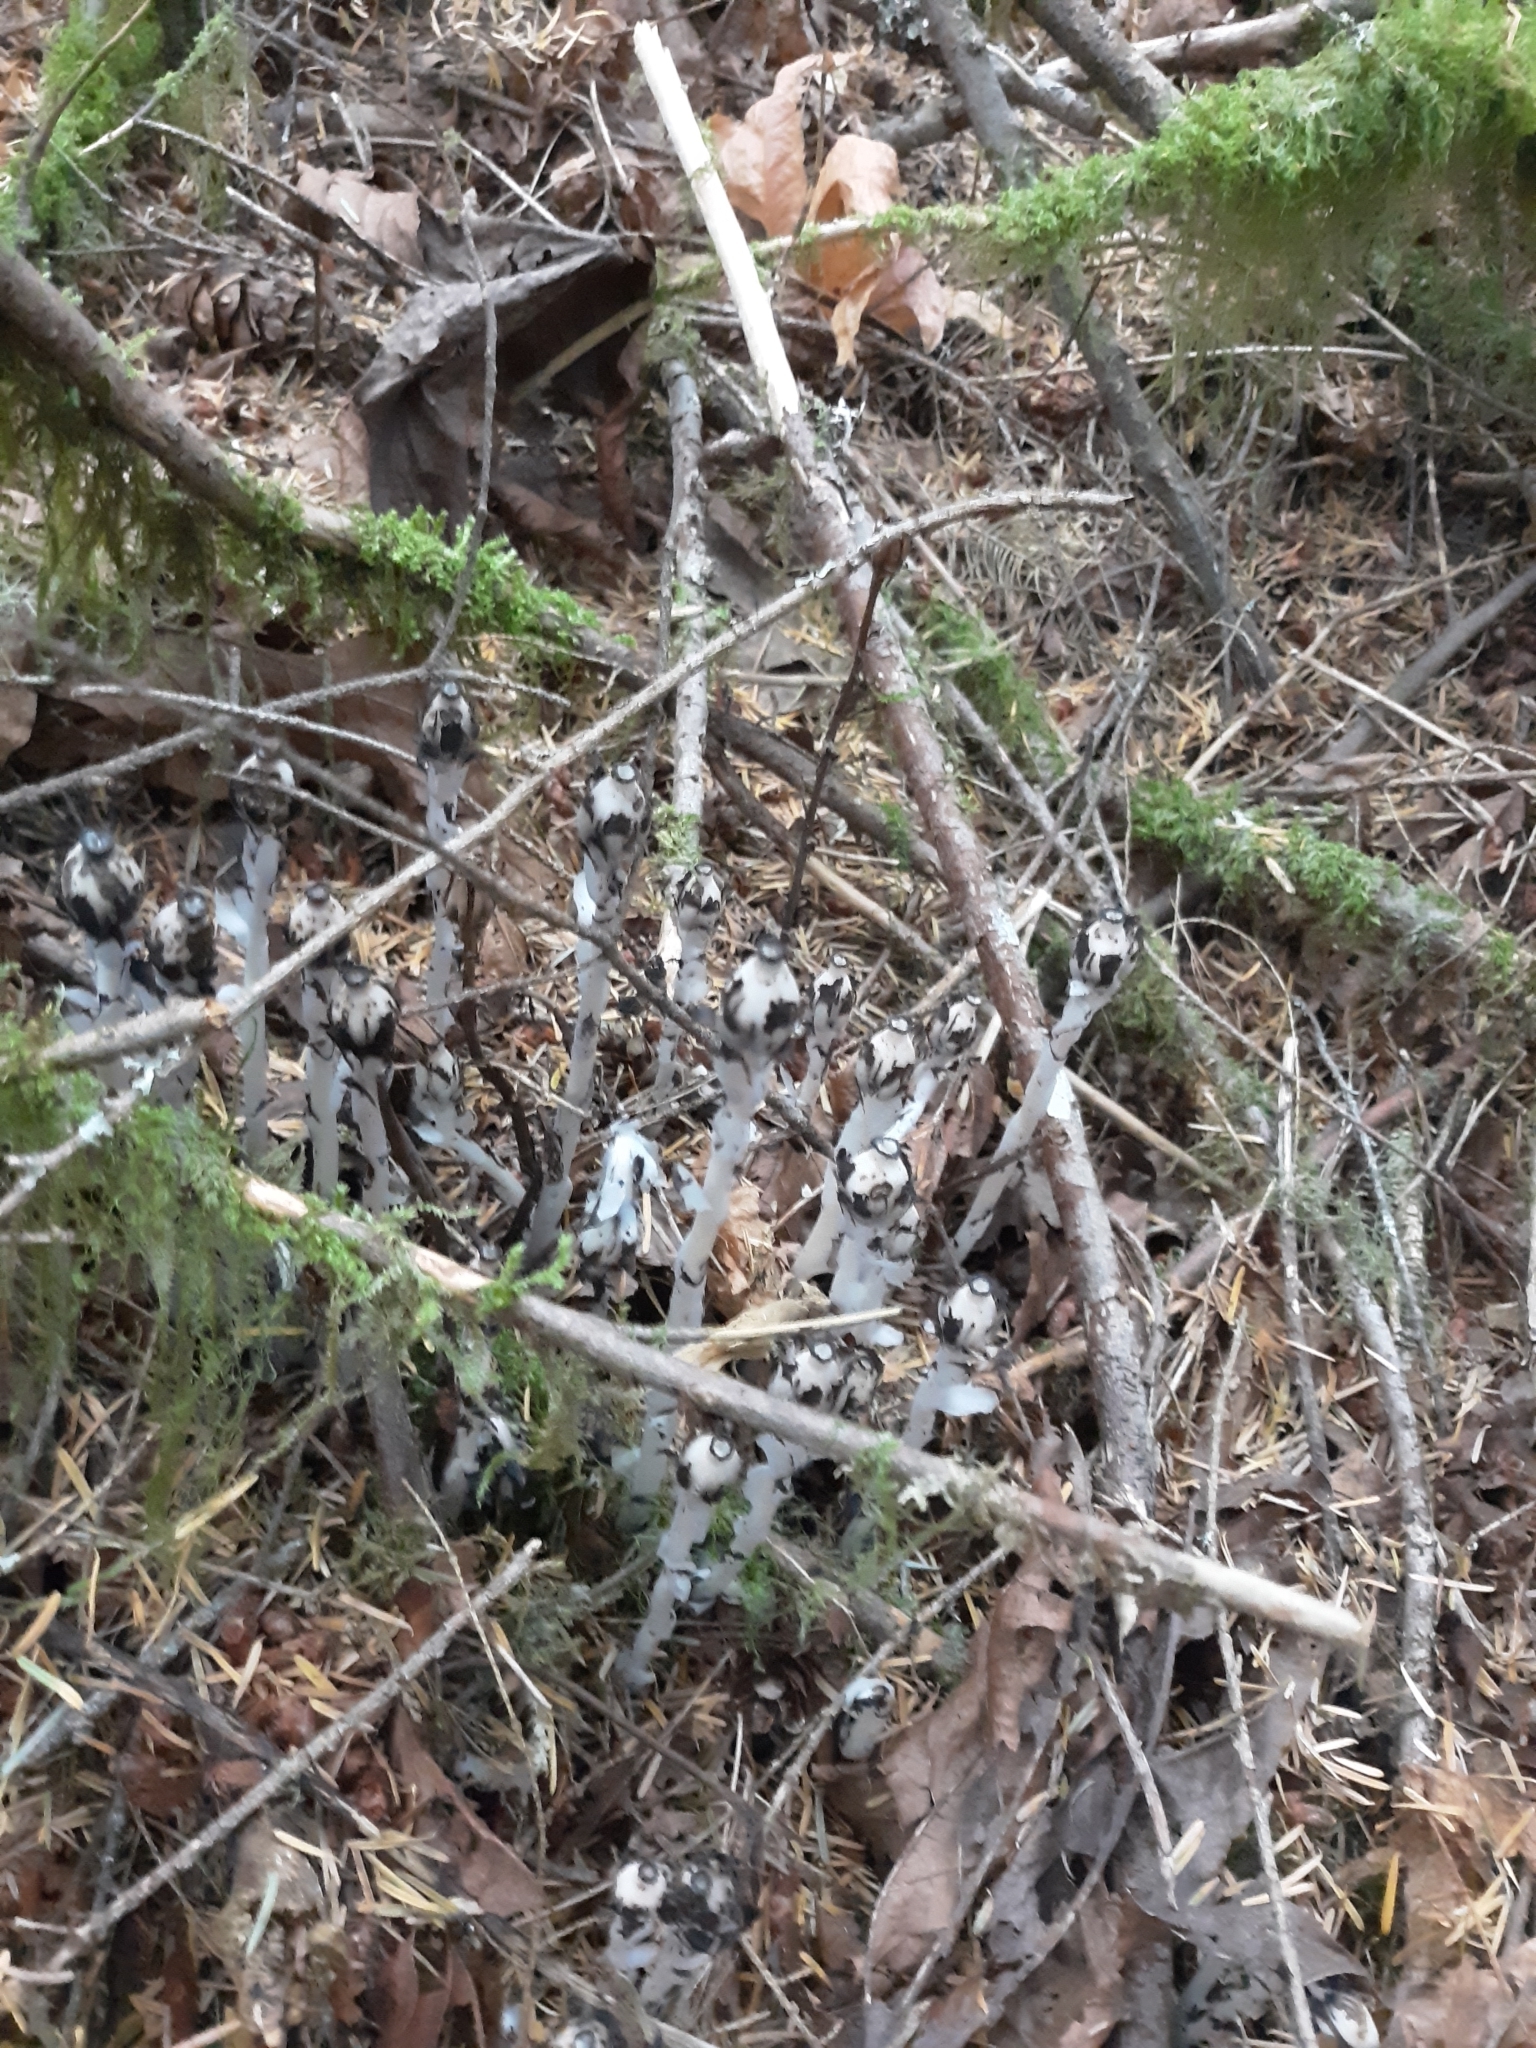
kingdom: Plantae
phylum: Tracheophyta
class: Magnoliopsida
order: Ericales
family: Ericaceae
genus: Monotropa
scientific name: Monotropa uniflora
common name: Convulsion root
